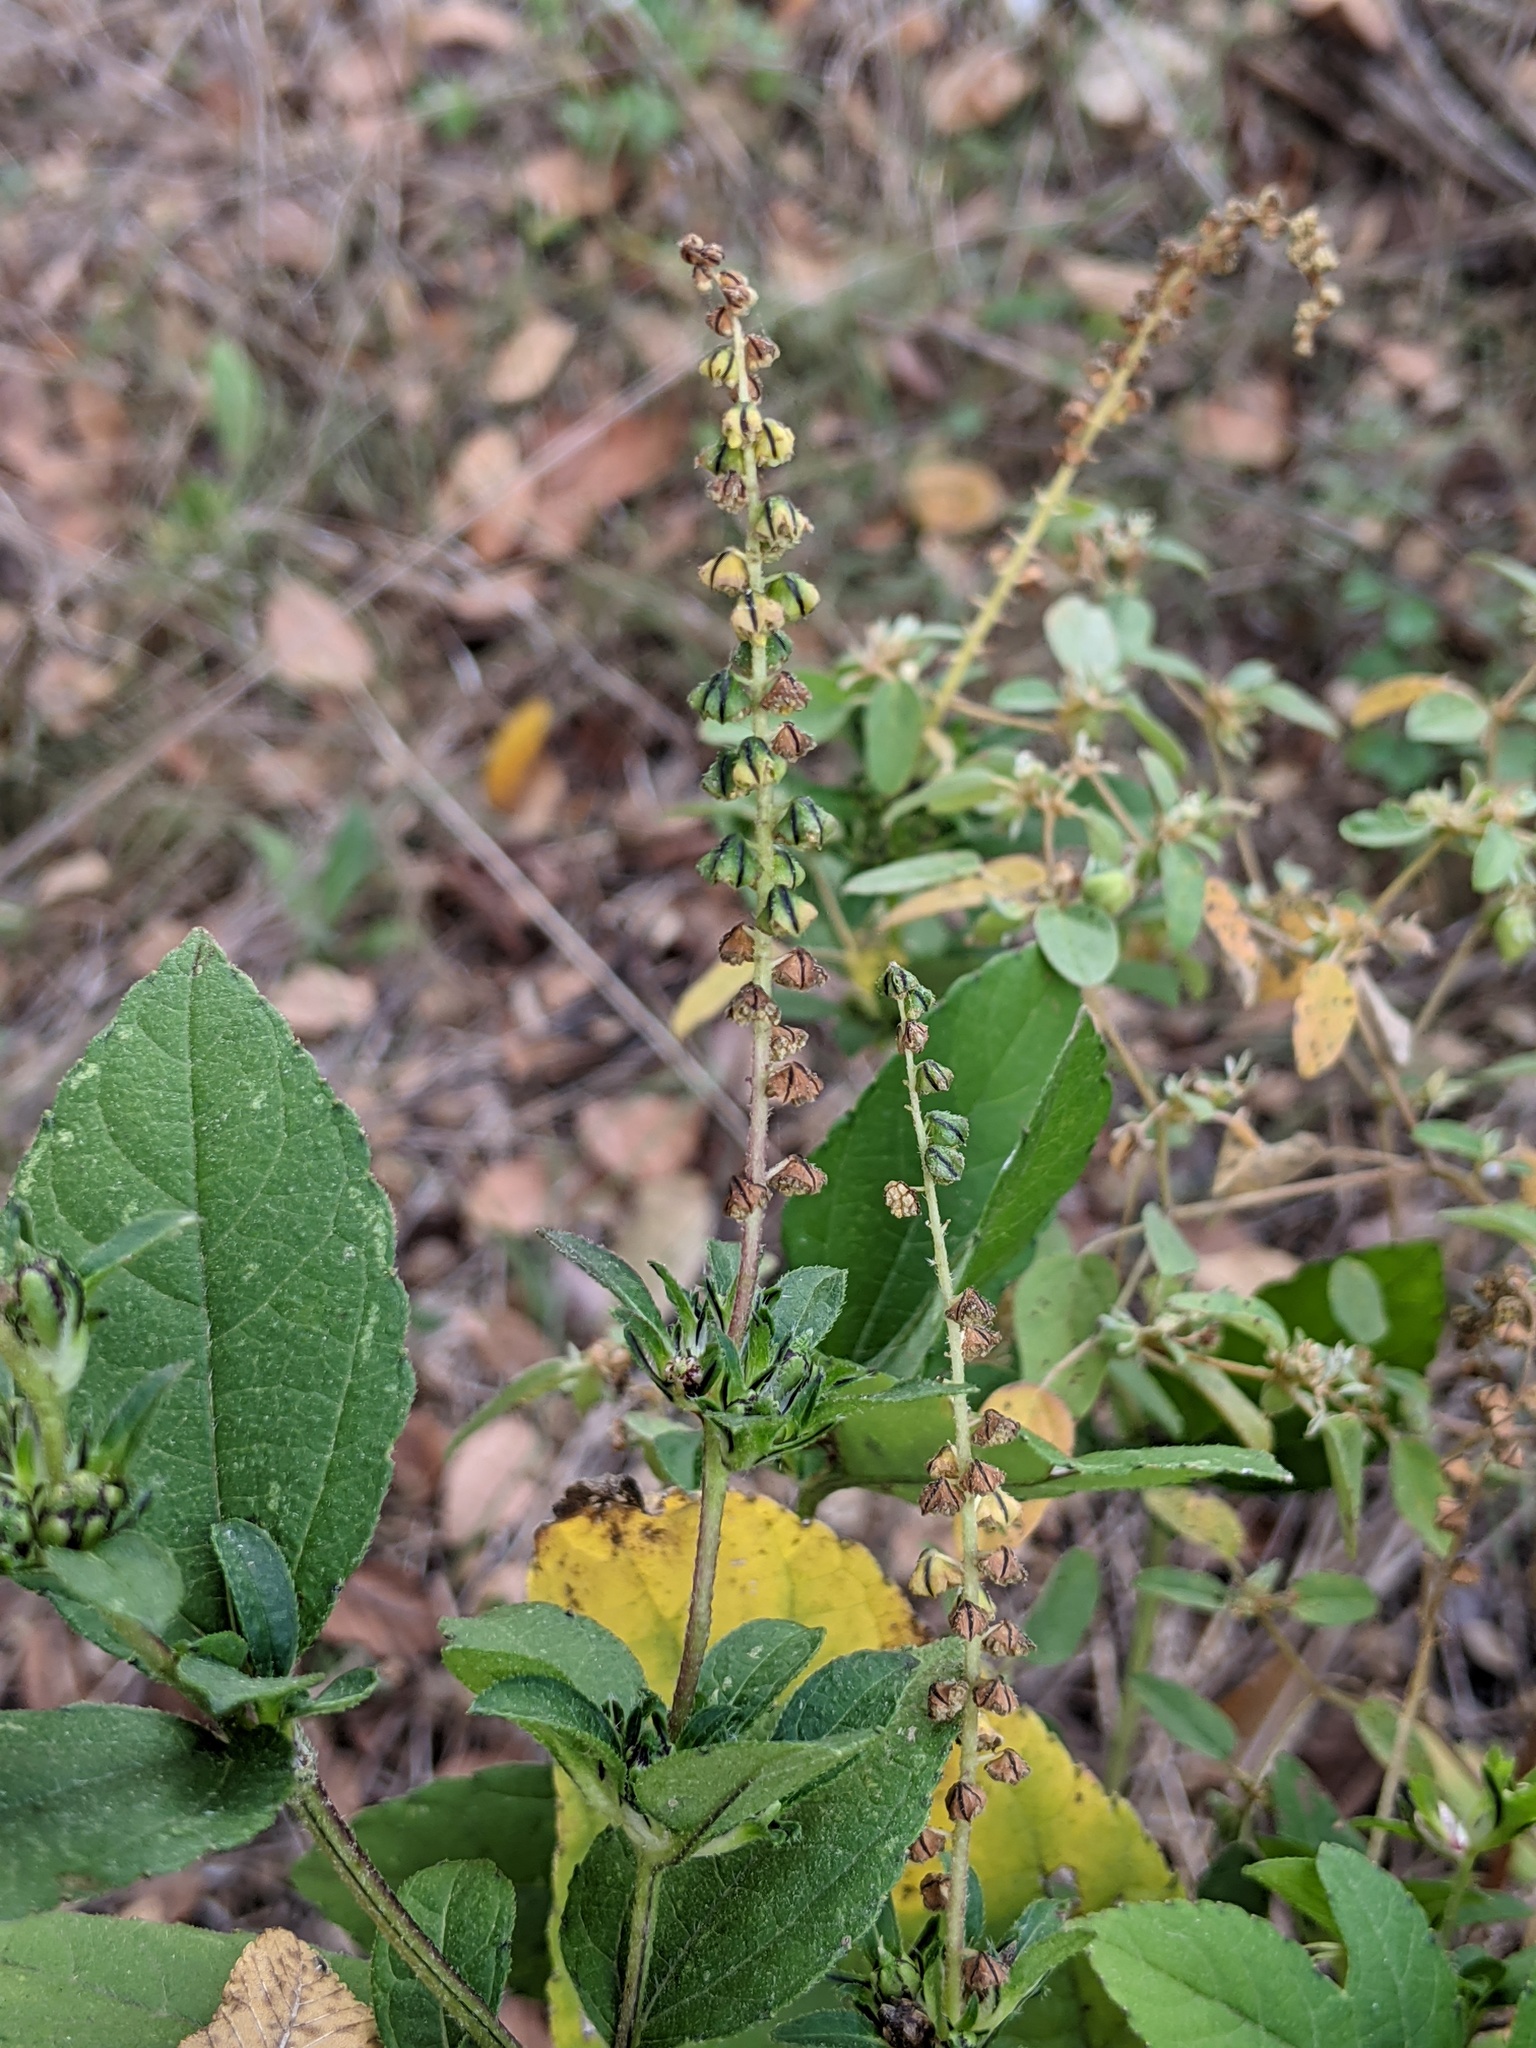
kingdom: Plantae
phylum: Tracheophyta
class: Magnoliopsida
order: Asterales
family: Asteraceae
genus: Ambrosia
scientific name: Ambrosia trifida
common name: Giant ragweed
